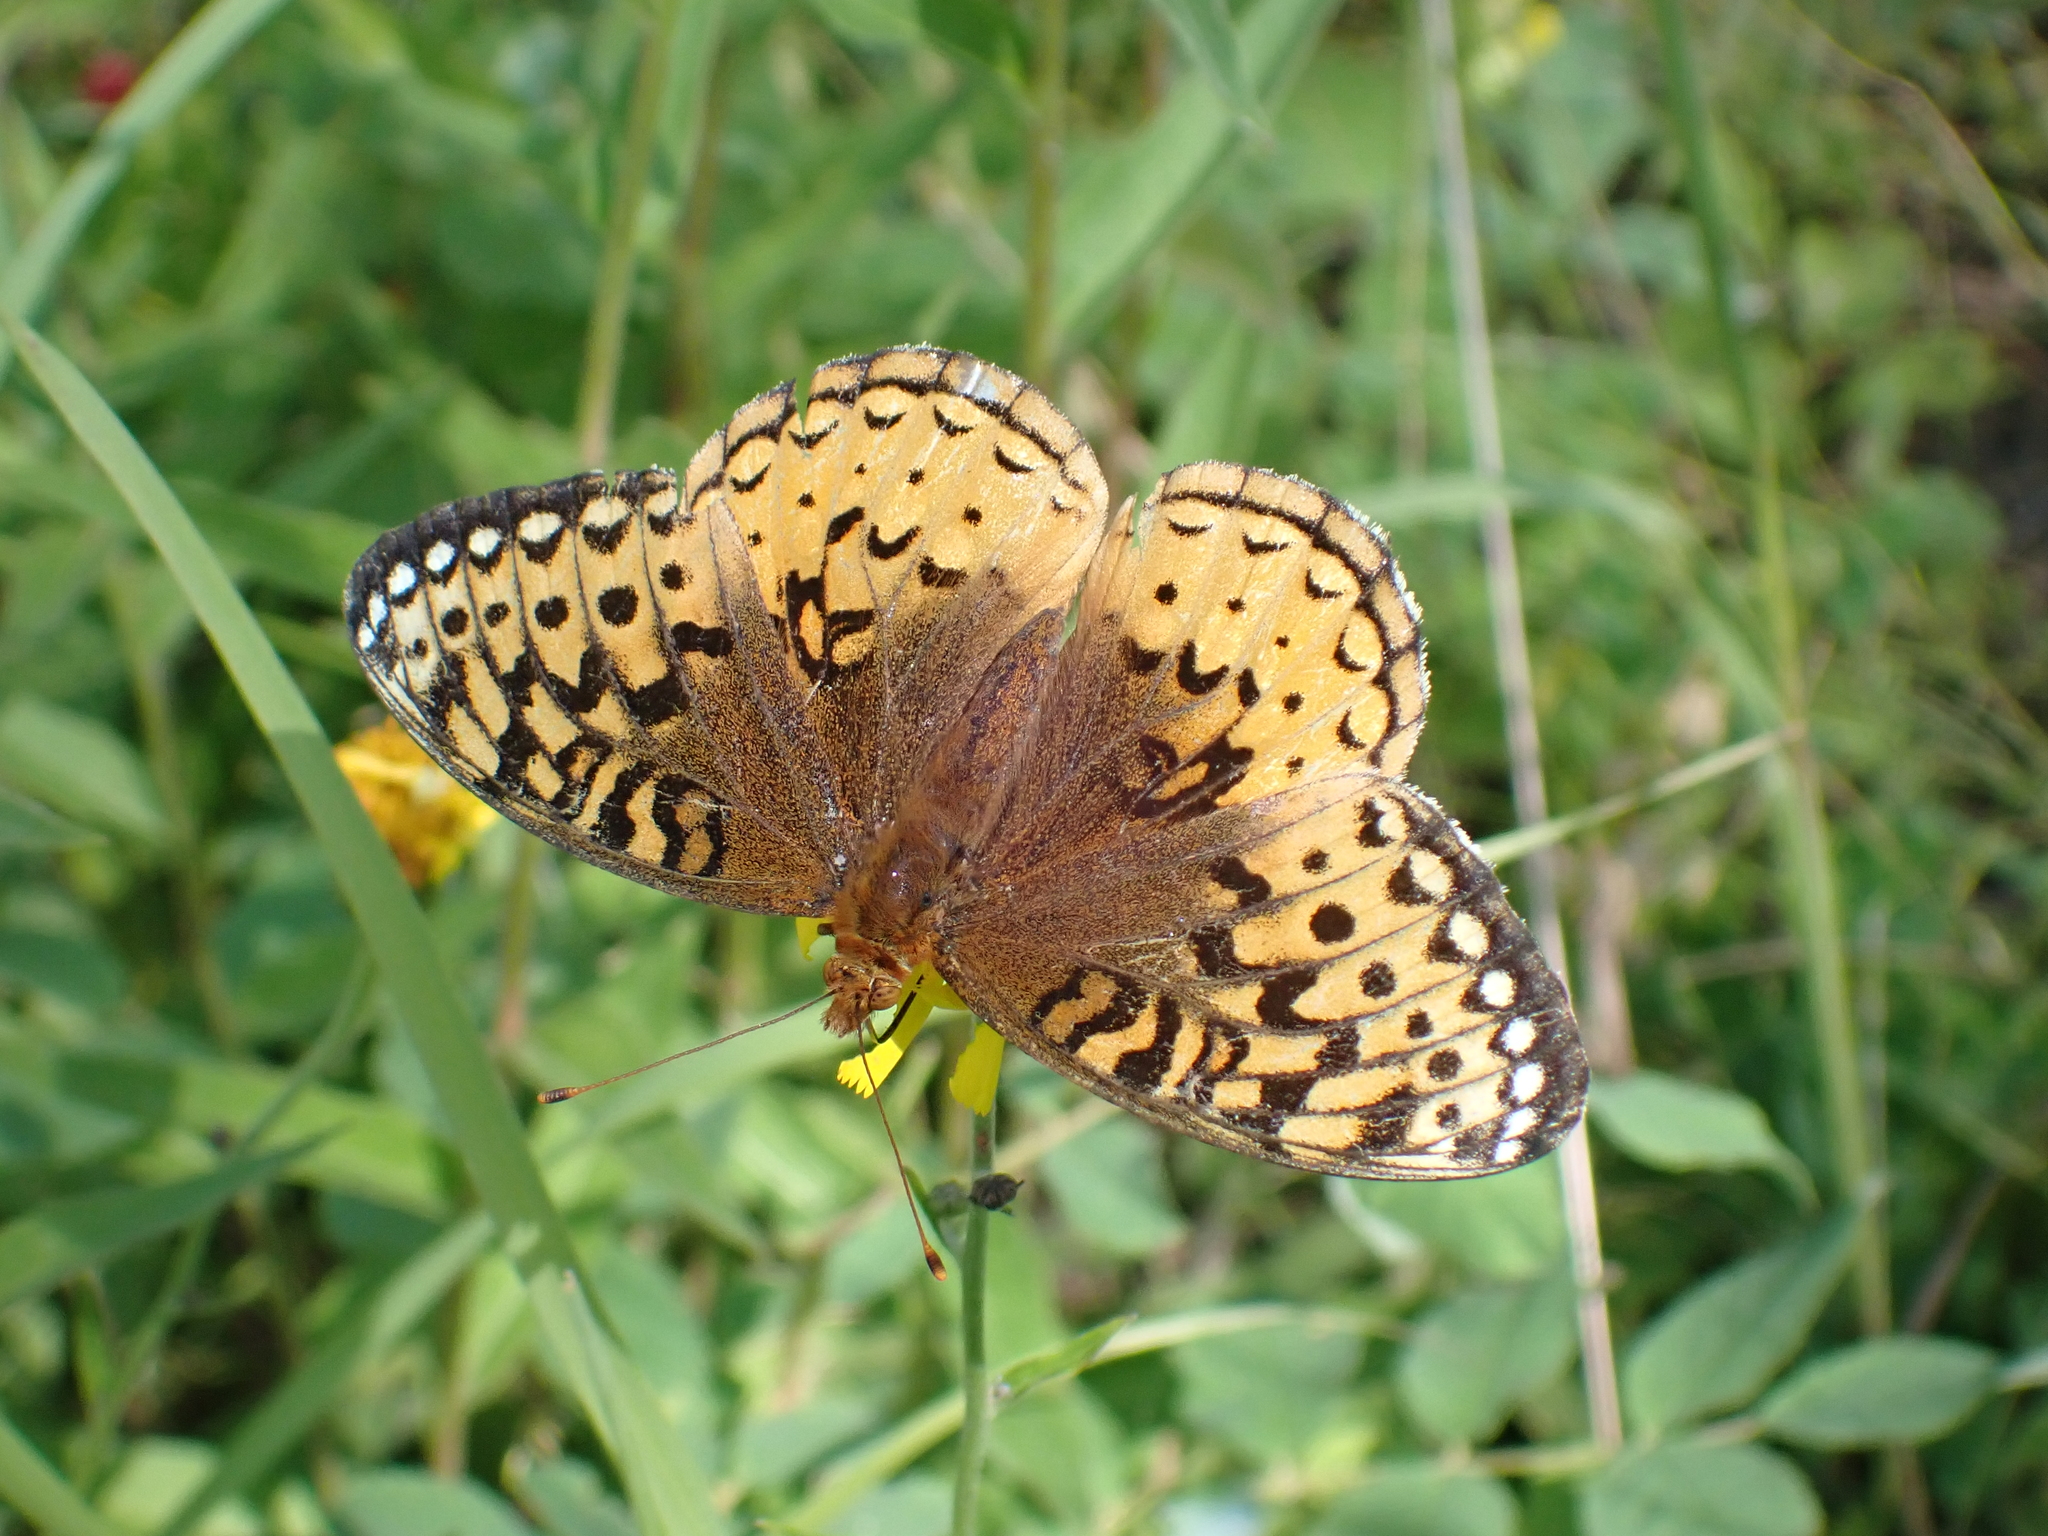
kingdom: Animalia
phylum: Arthropoda
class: Insecta
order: Lepidoptera
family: Nymphalidae
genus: Speyeria
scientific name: Speyeria cybele
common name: Great spangled fritillary
